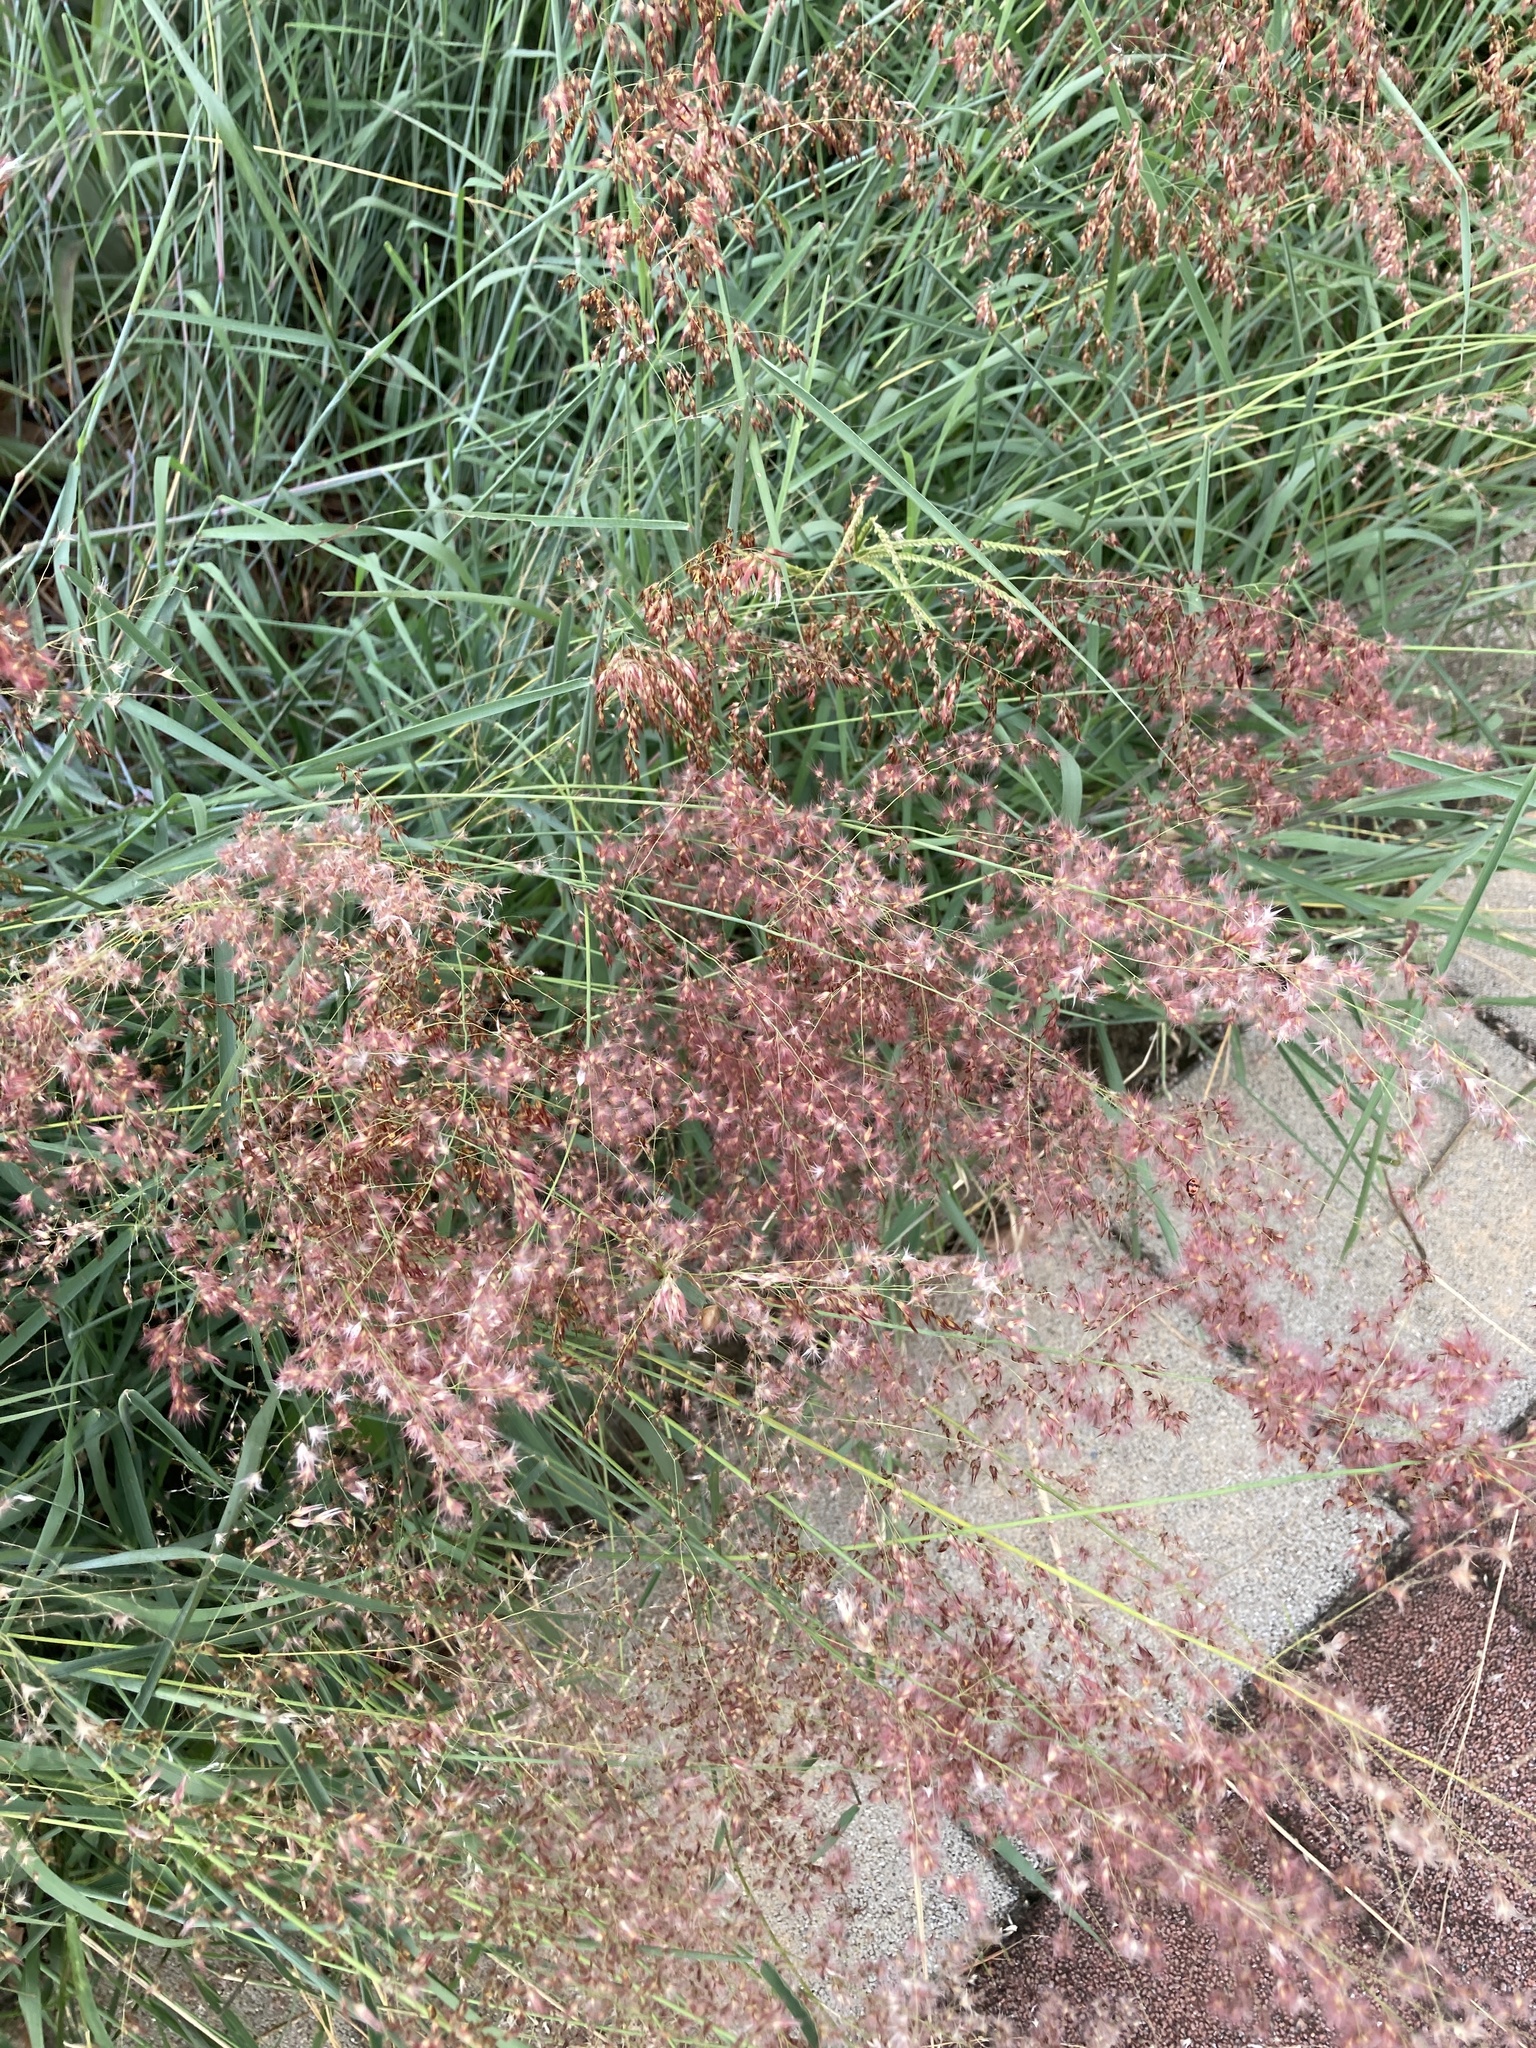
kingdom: Plantae
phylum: Tracheophyta
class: Liliopsida
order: Poales
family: Poaceae
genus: Melinis
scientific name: Melinis repens
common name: Rose natal grass
